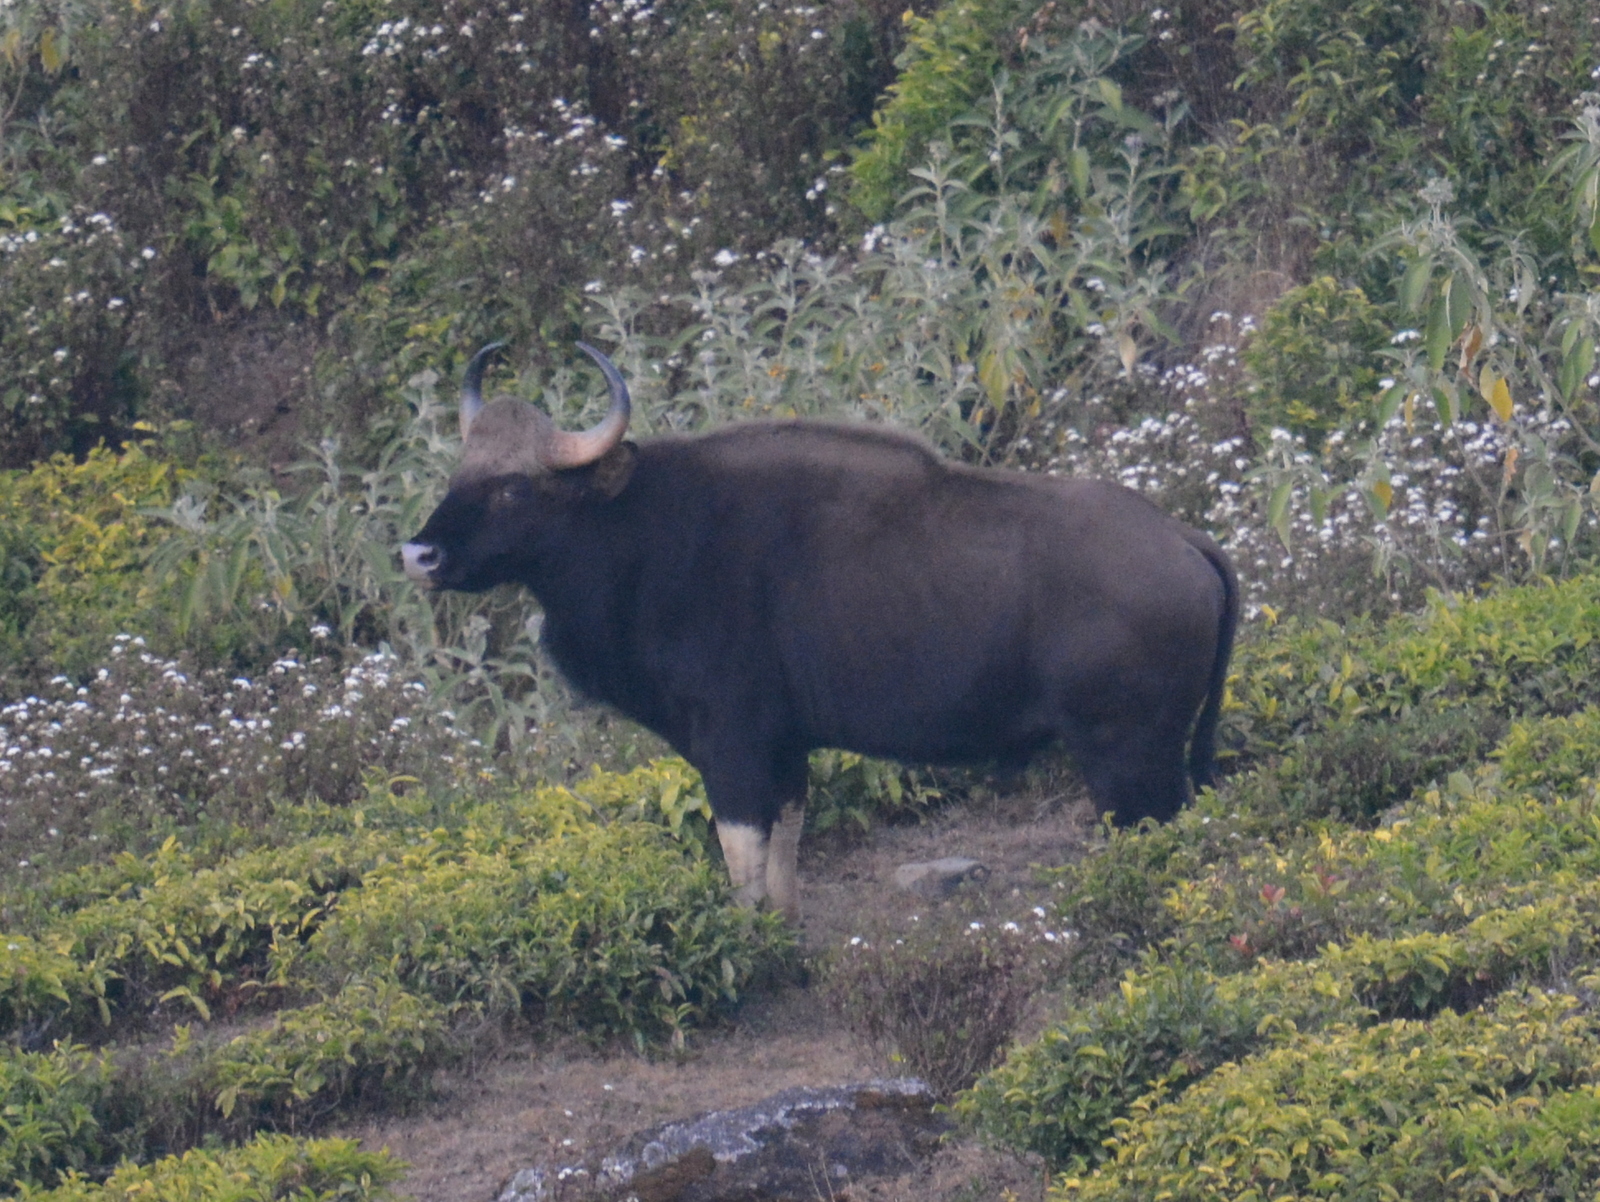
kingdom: Animalia
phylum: Chordata
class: Mammalia
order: Artiodactyla
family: Bovidae
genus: Bos
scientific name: Bos frontalis
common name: Gaur
